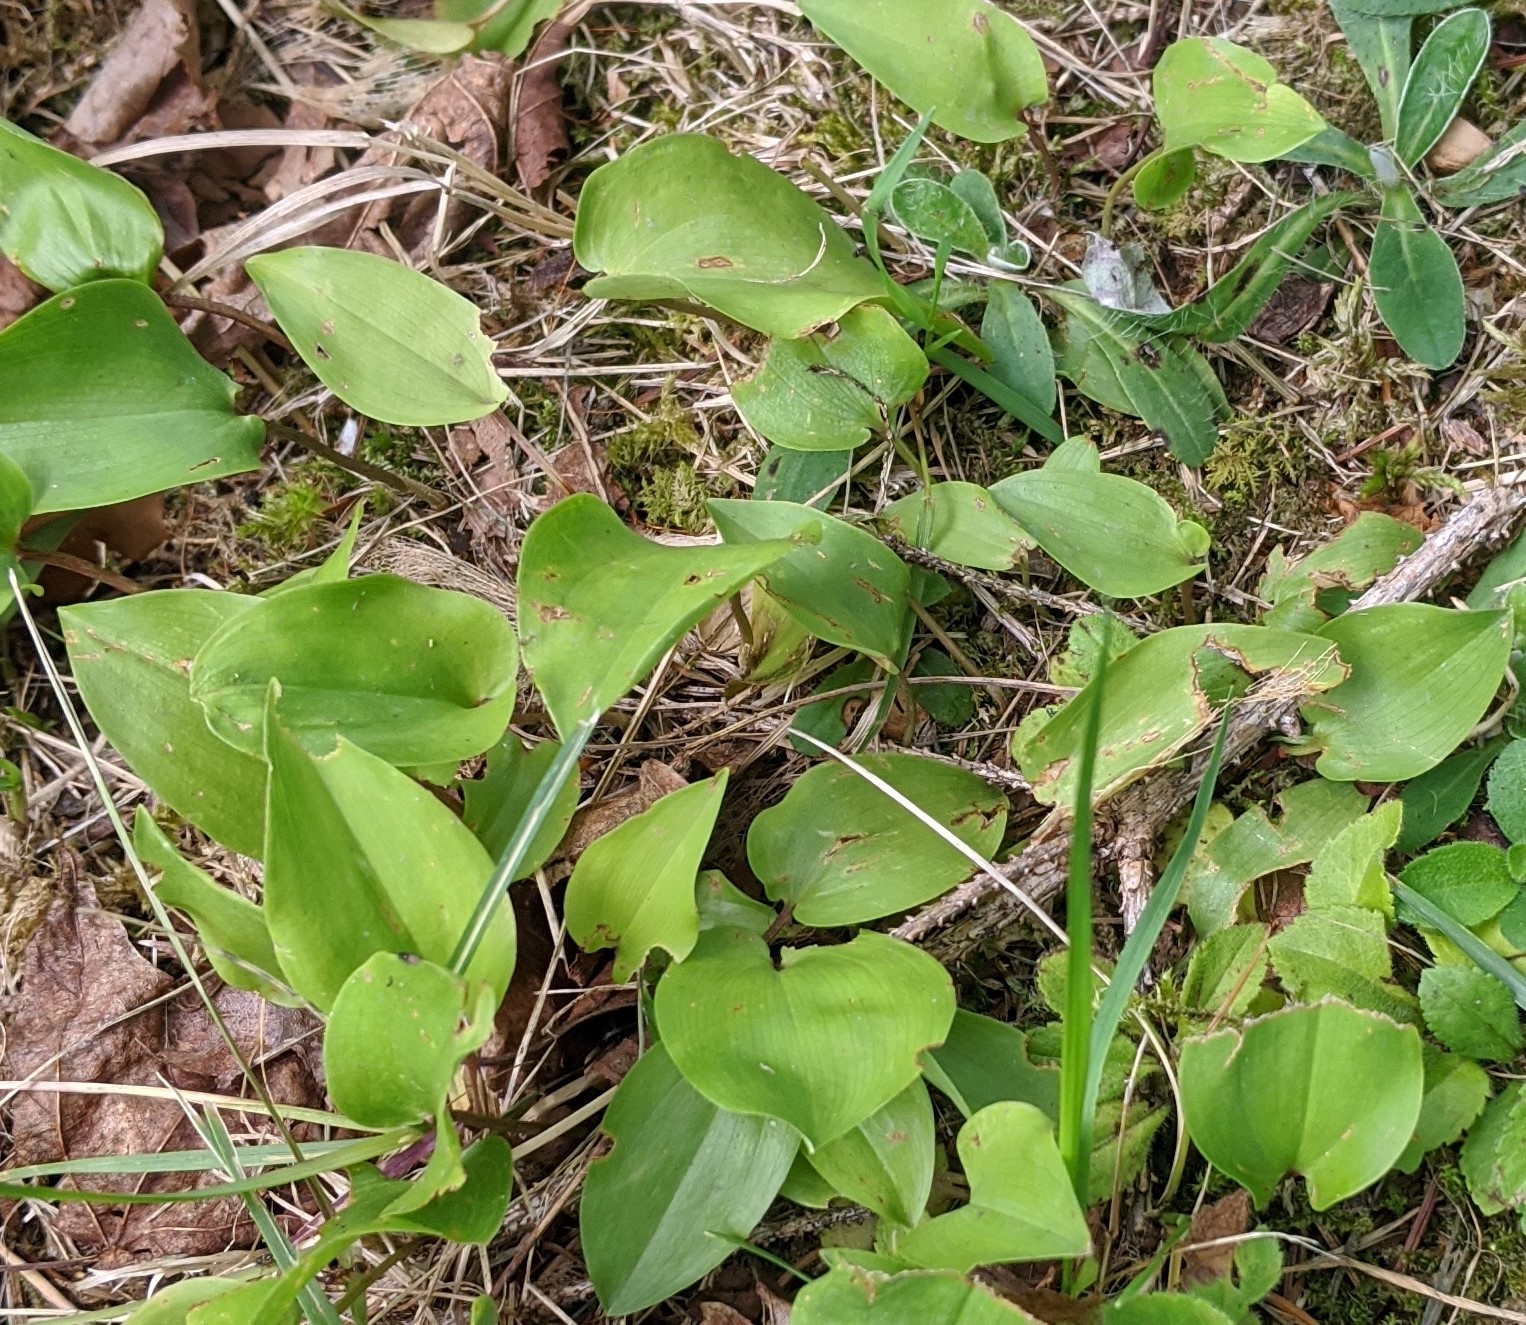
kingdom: Plantae
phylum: Tracheophyta
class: Liliopsida
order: Asparagales
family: Asparagaceae
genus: Maianthemum
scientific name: Maianthemum canadense
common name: False lily-of-the-valley
